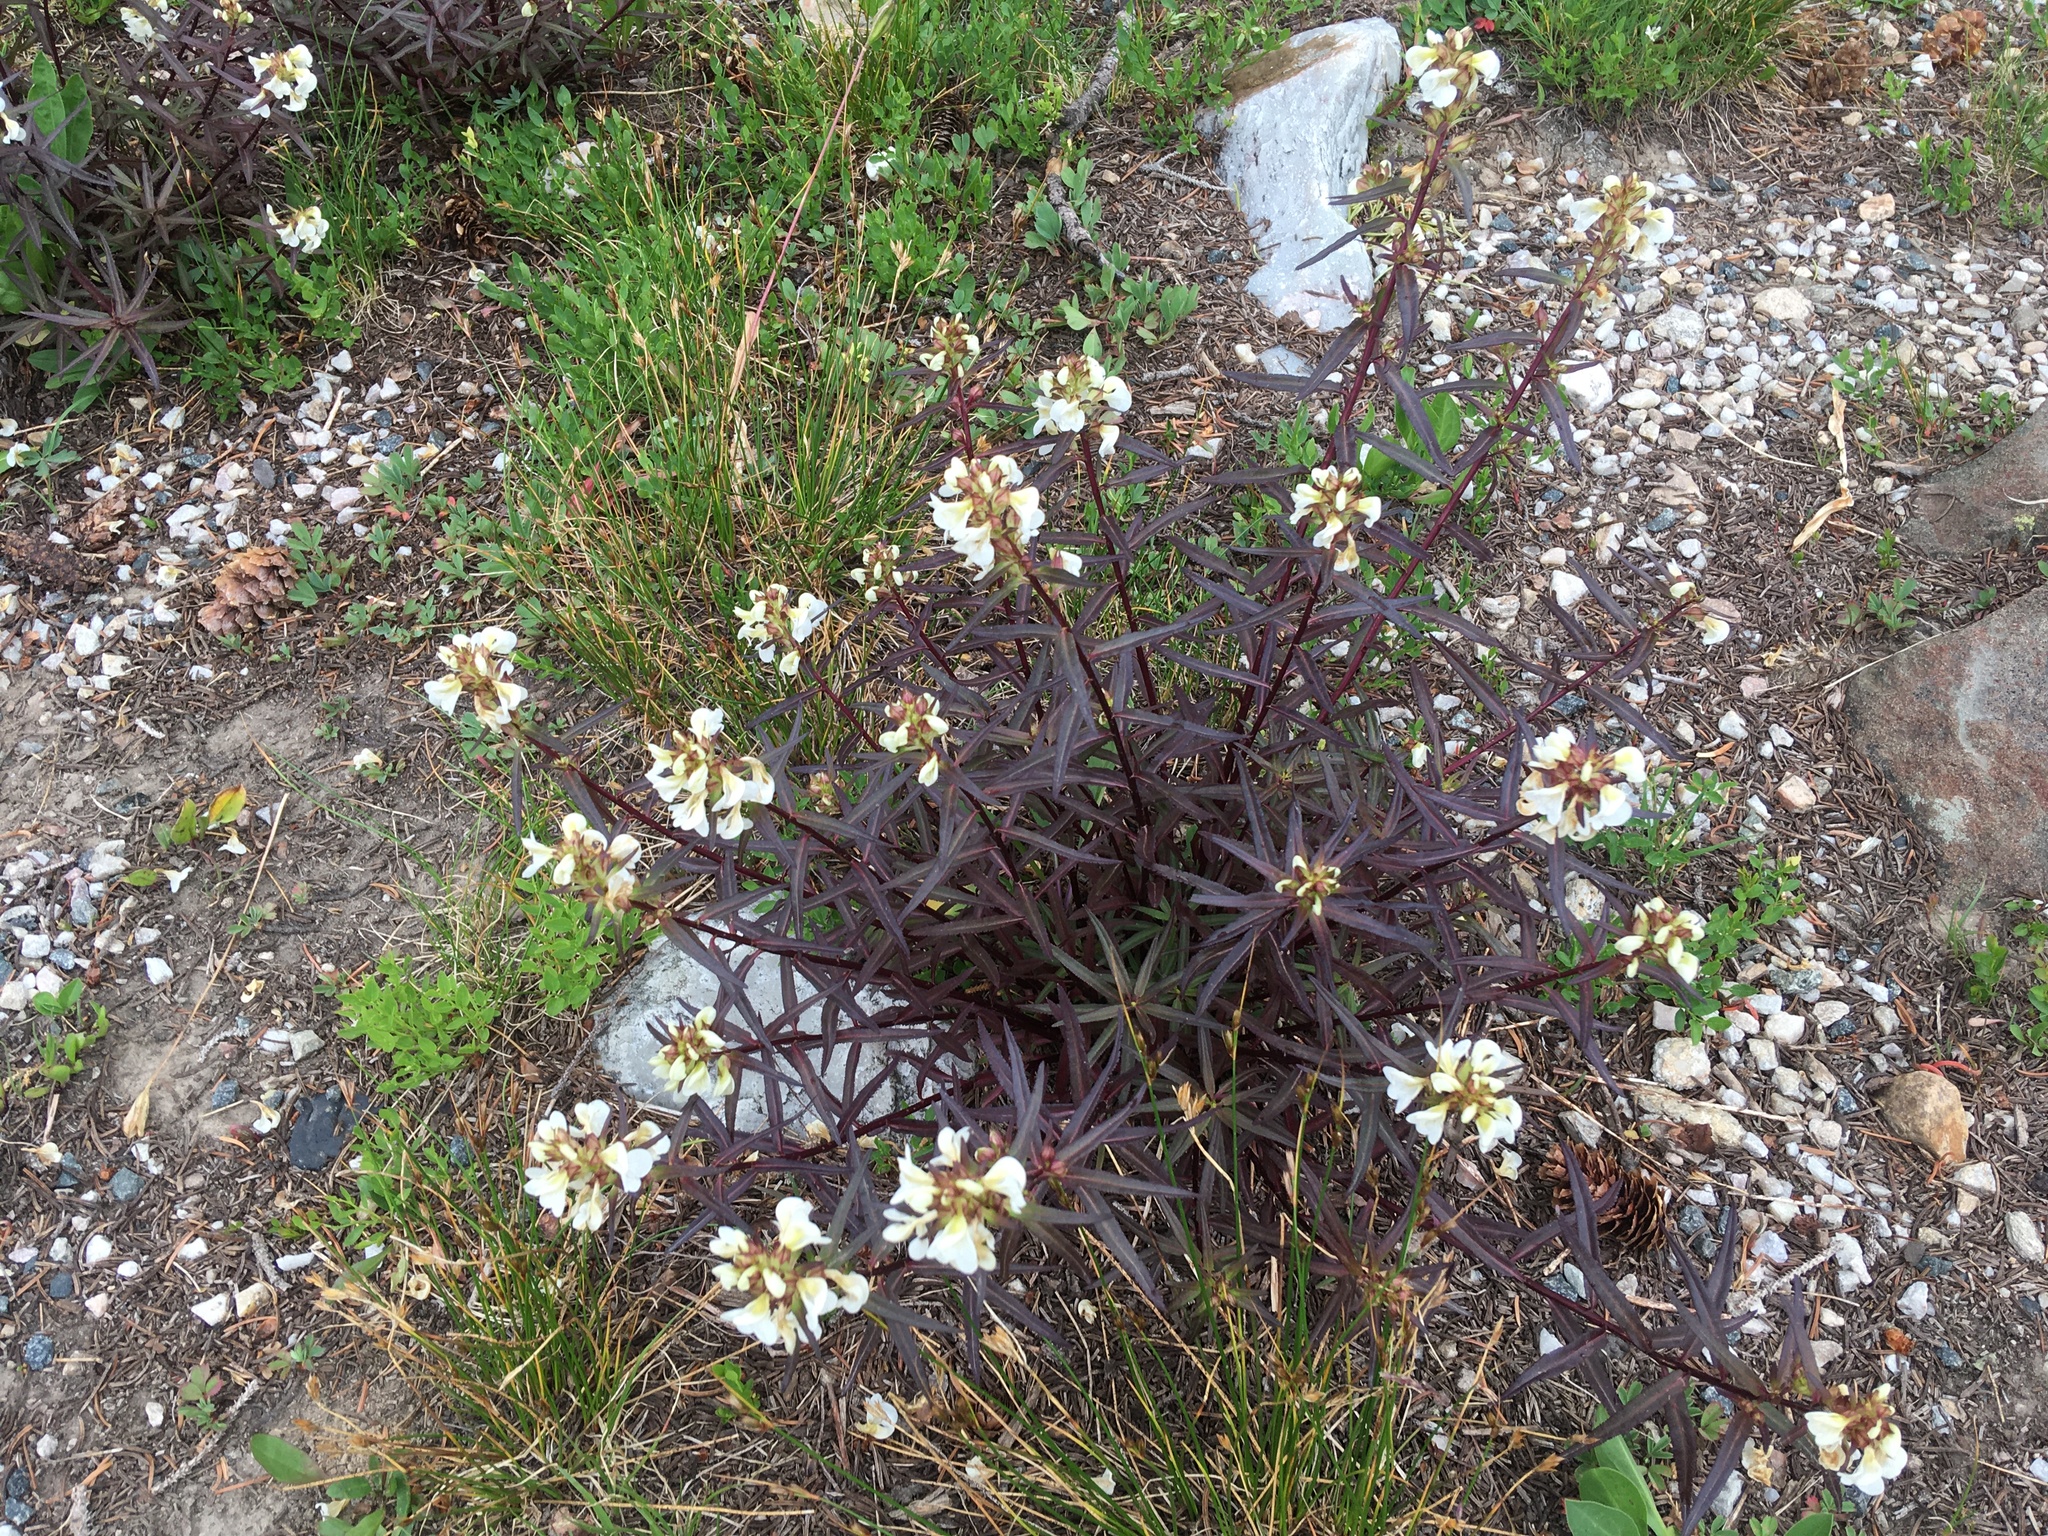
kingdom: Plantae
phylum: Tracheophyta
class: Magnoliopsida
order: Lamiales
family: Orobanchaceae
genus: Pedicularis
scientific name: Pedicularis racemosa
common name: Leafy lousewort
